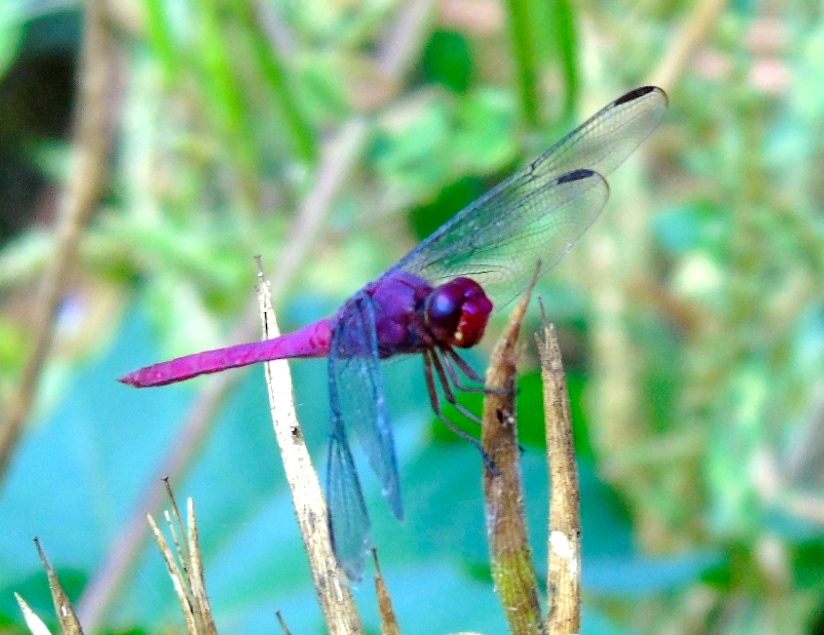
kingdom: Animalia
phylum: Arthropoda
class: Insecta
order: Odonata
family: Libellulidae
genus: Orthemis
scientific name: Orthemis ferruginea
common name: Roseate skimmer
